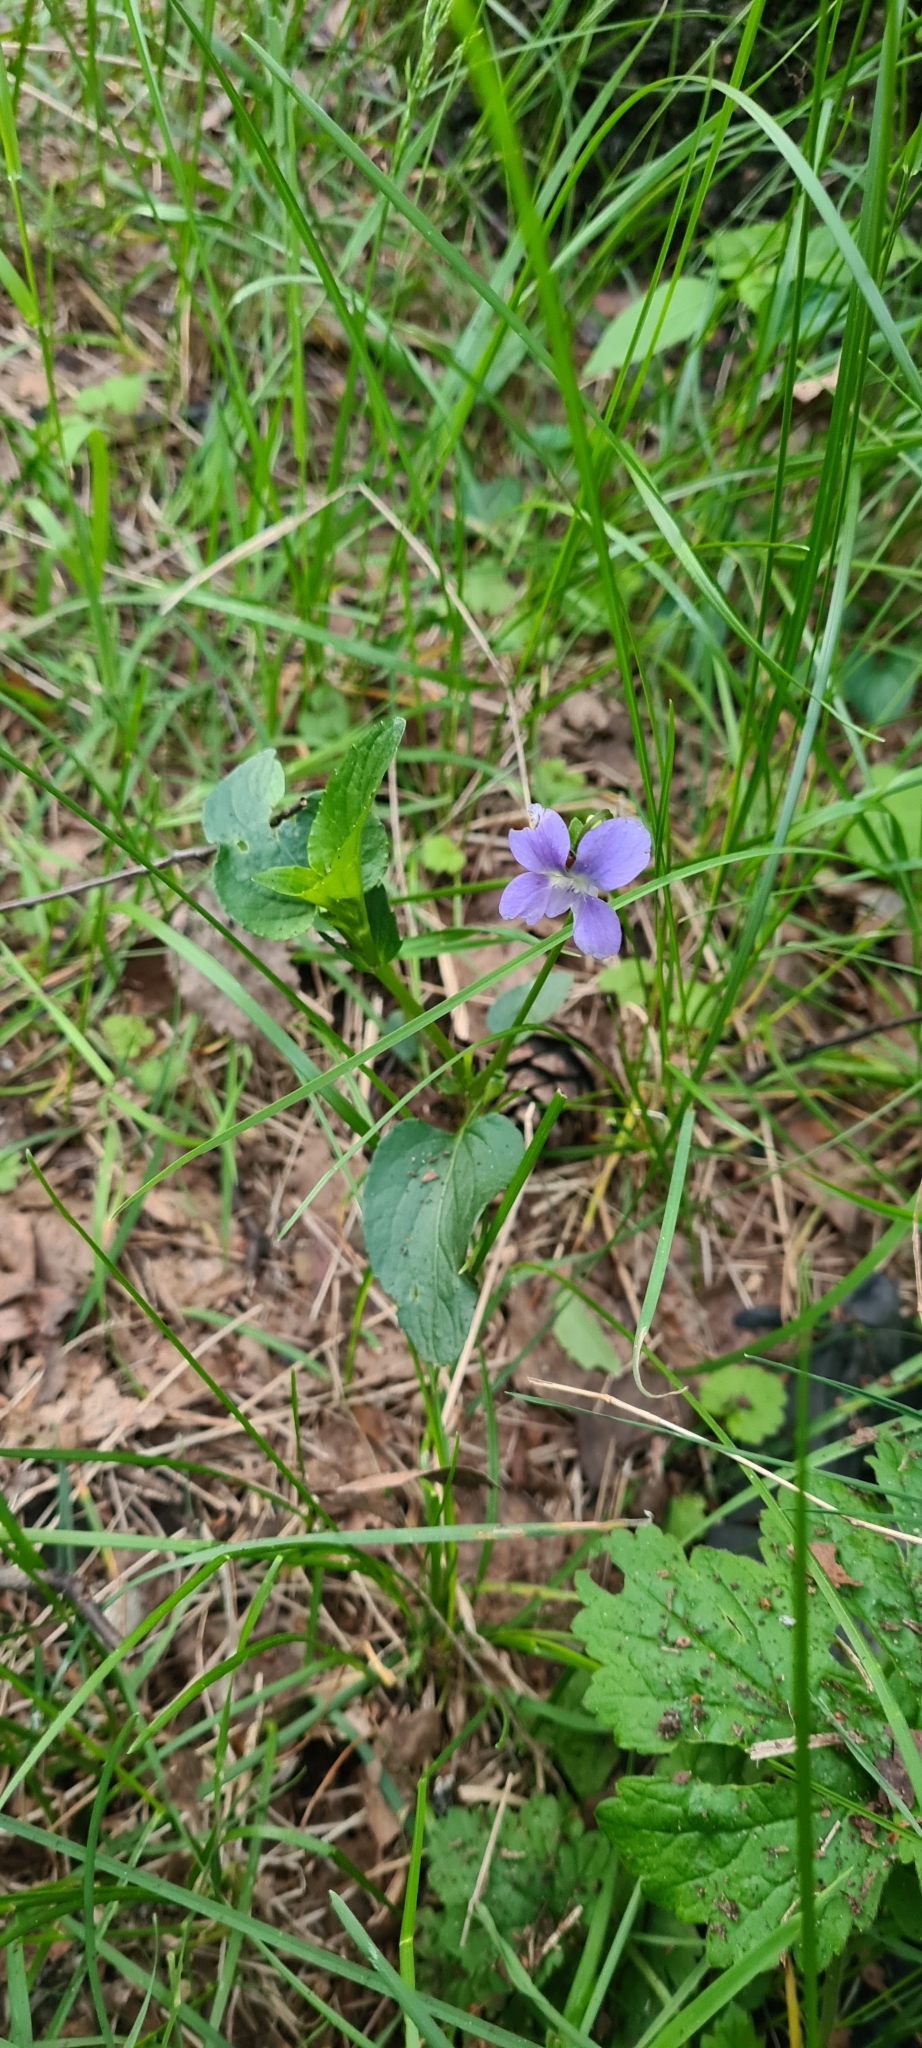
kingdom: Plantae
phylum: Tracheophyta
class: Magnoliopsida
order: Malpighiales
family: Violaceae
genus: Viola
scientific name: Viola
